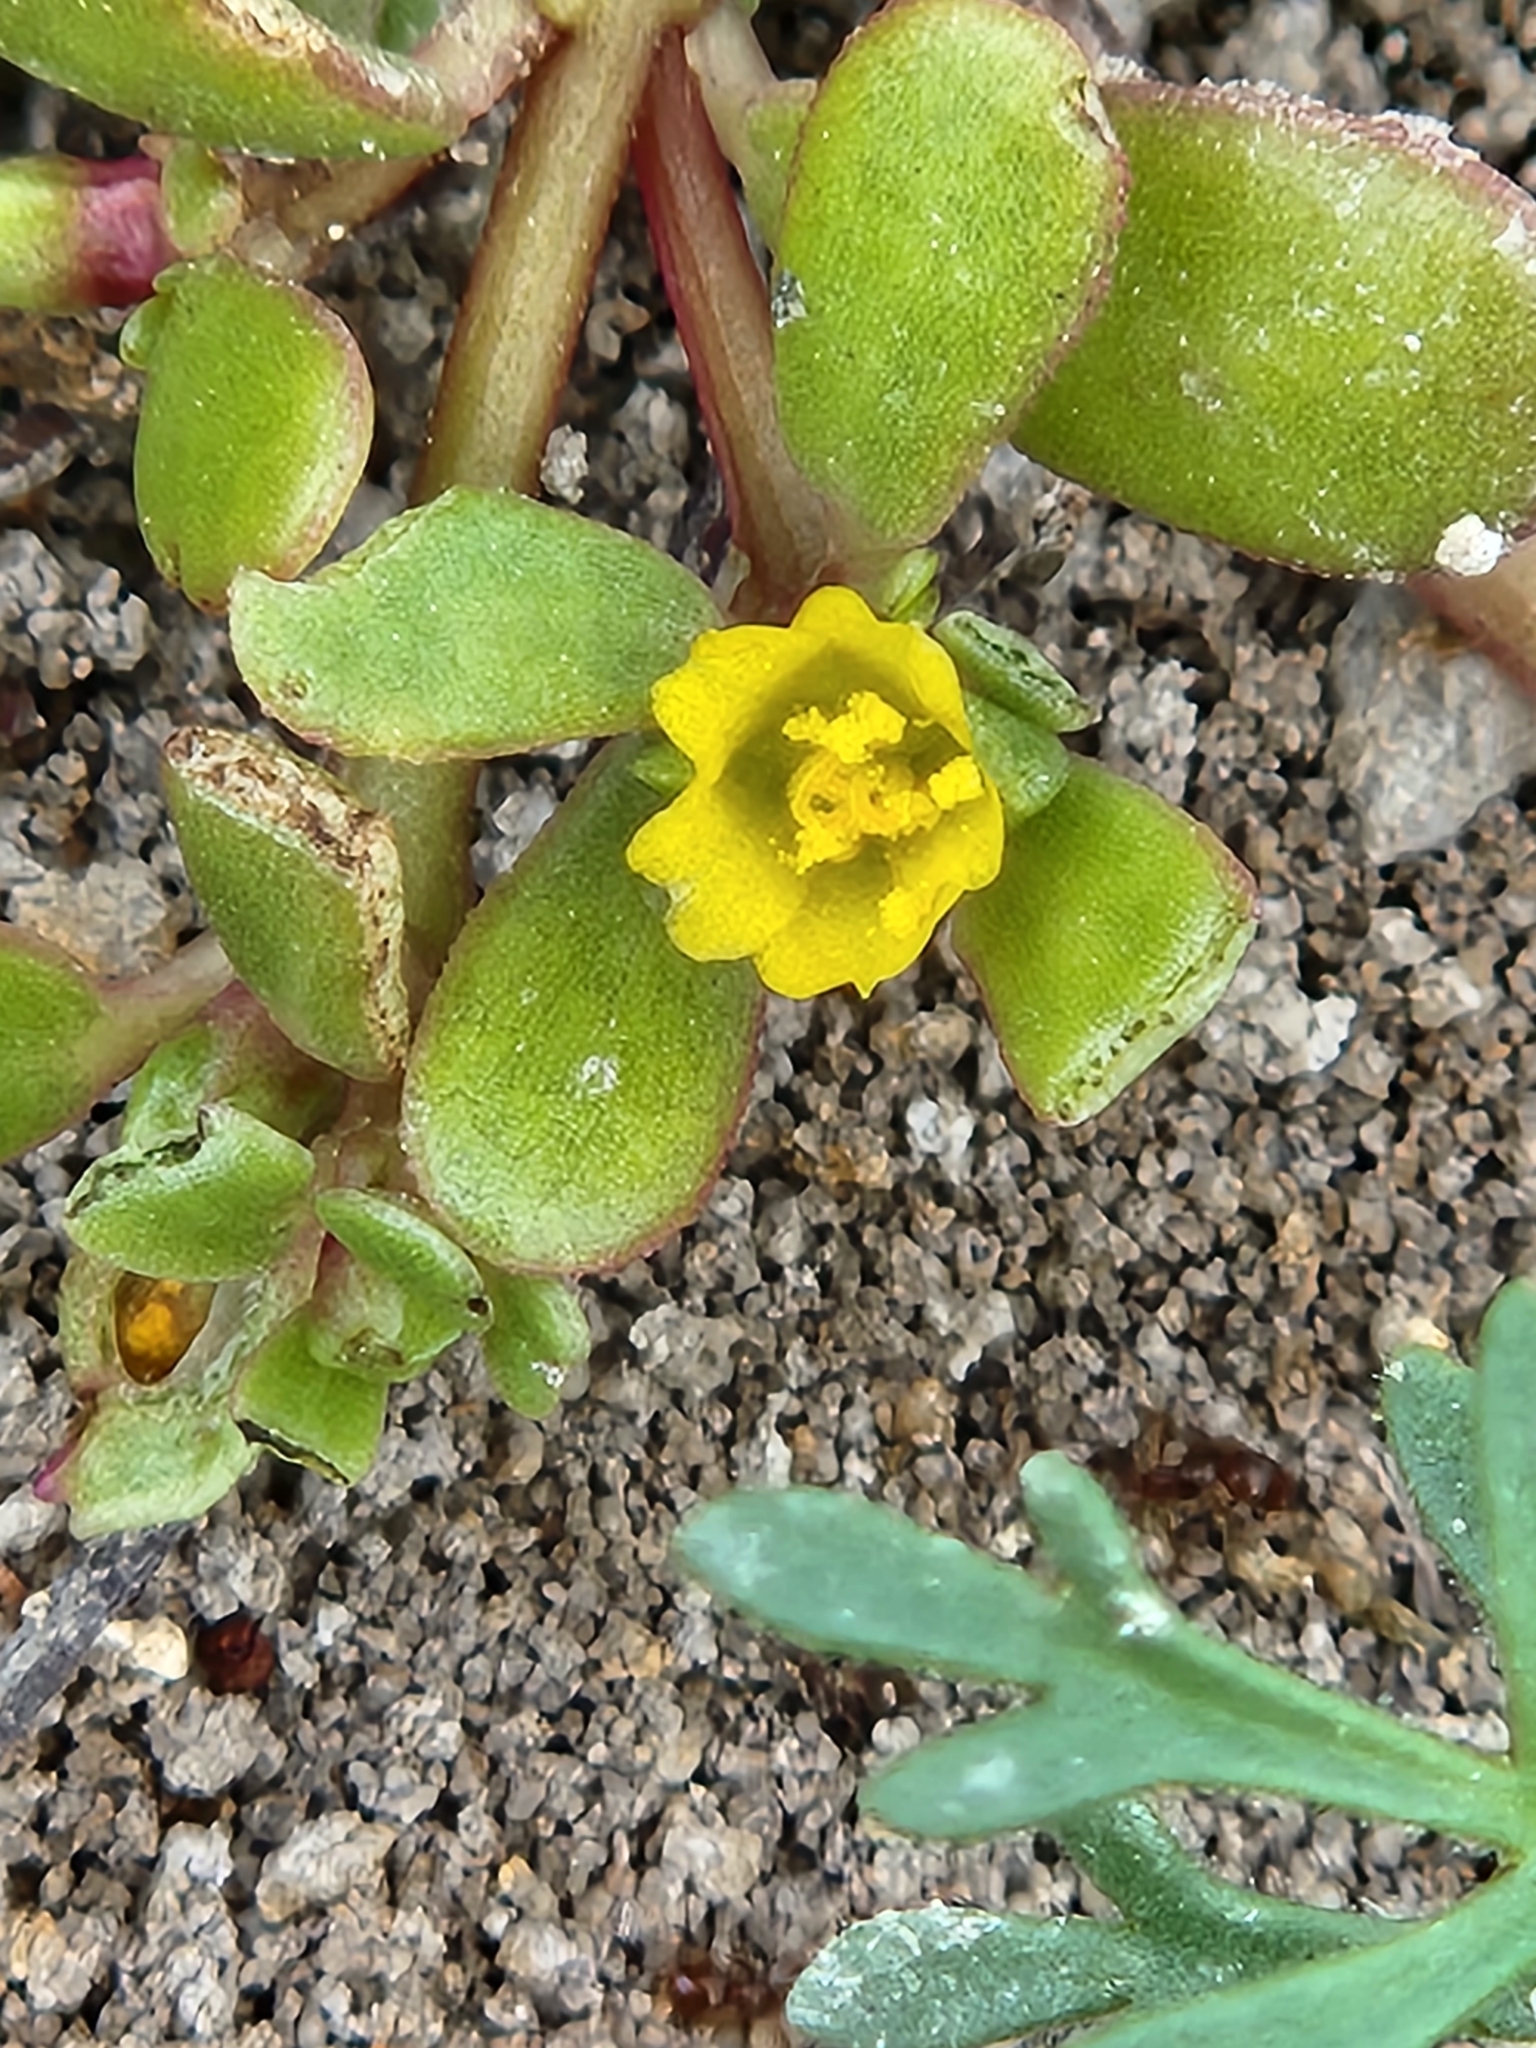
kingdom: Plantae
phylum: Tracheophyta
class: Magnoliopsida
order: Caryophyllales
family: Portulacaceae
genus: Portulaca
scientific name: Portulaca oleracea
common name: Common purslane
